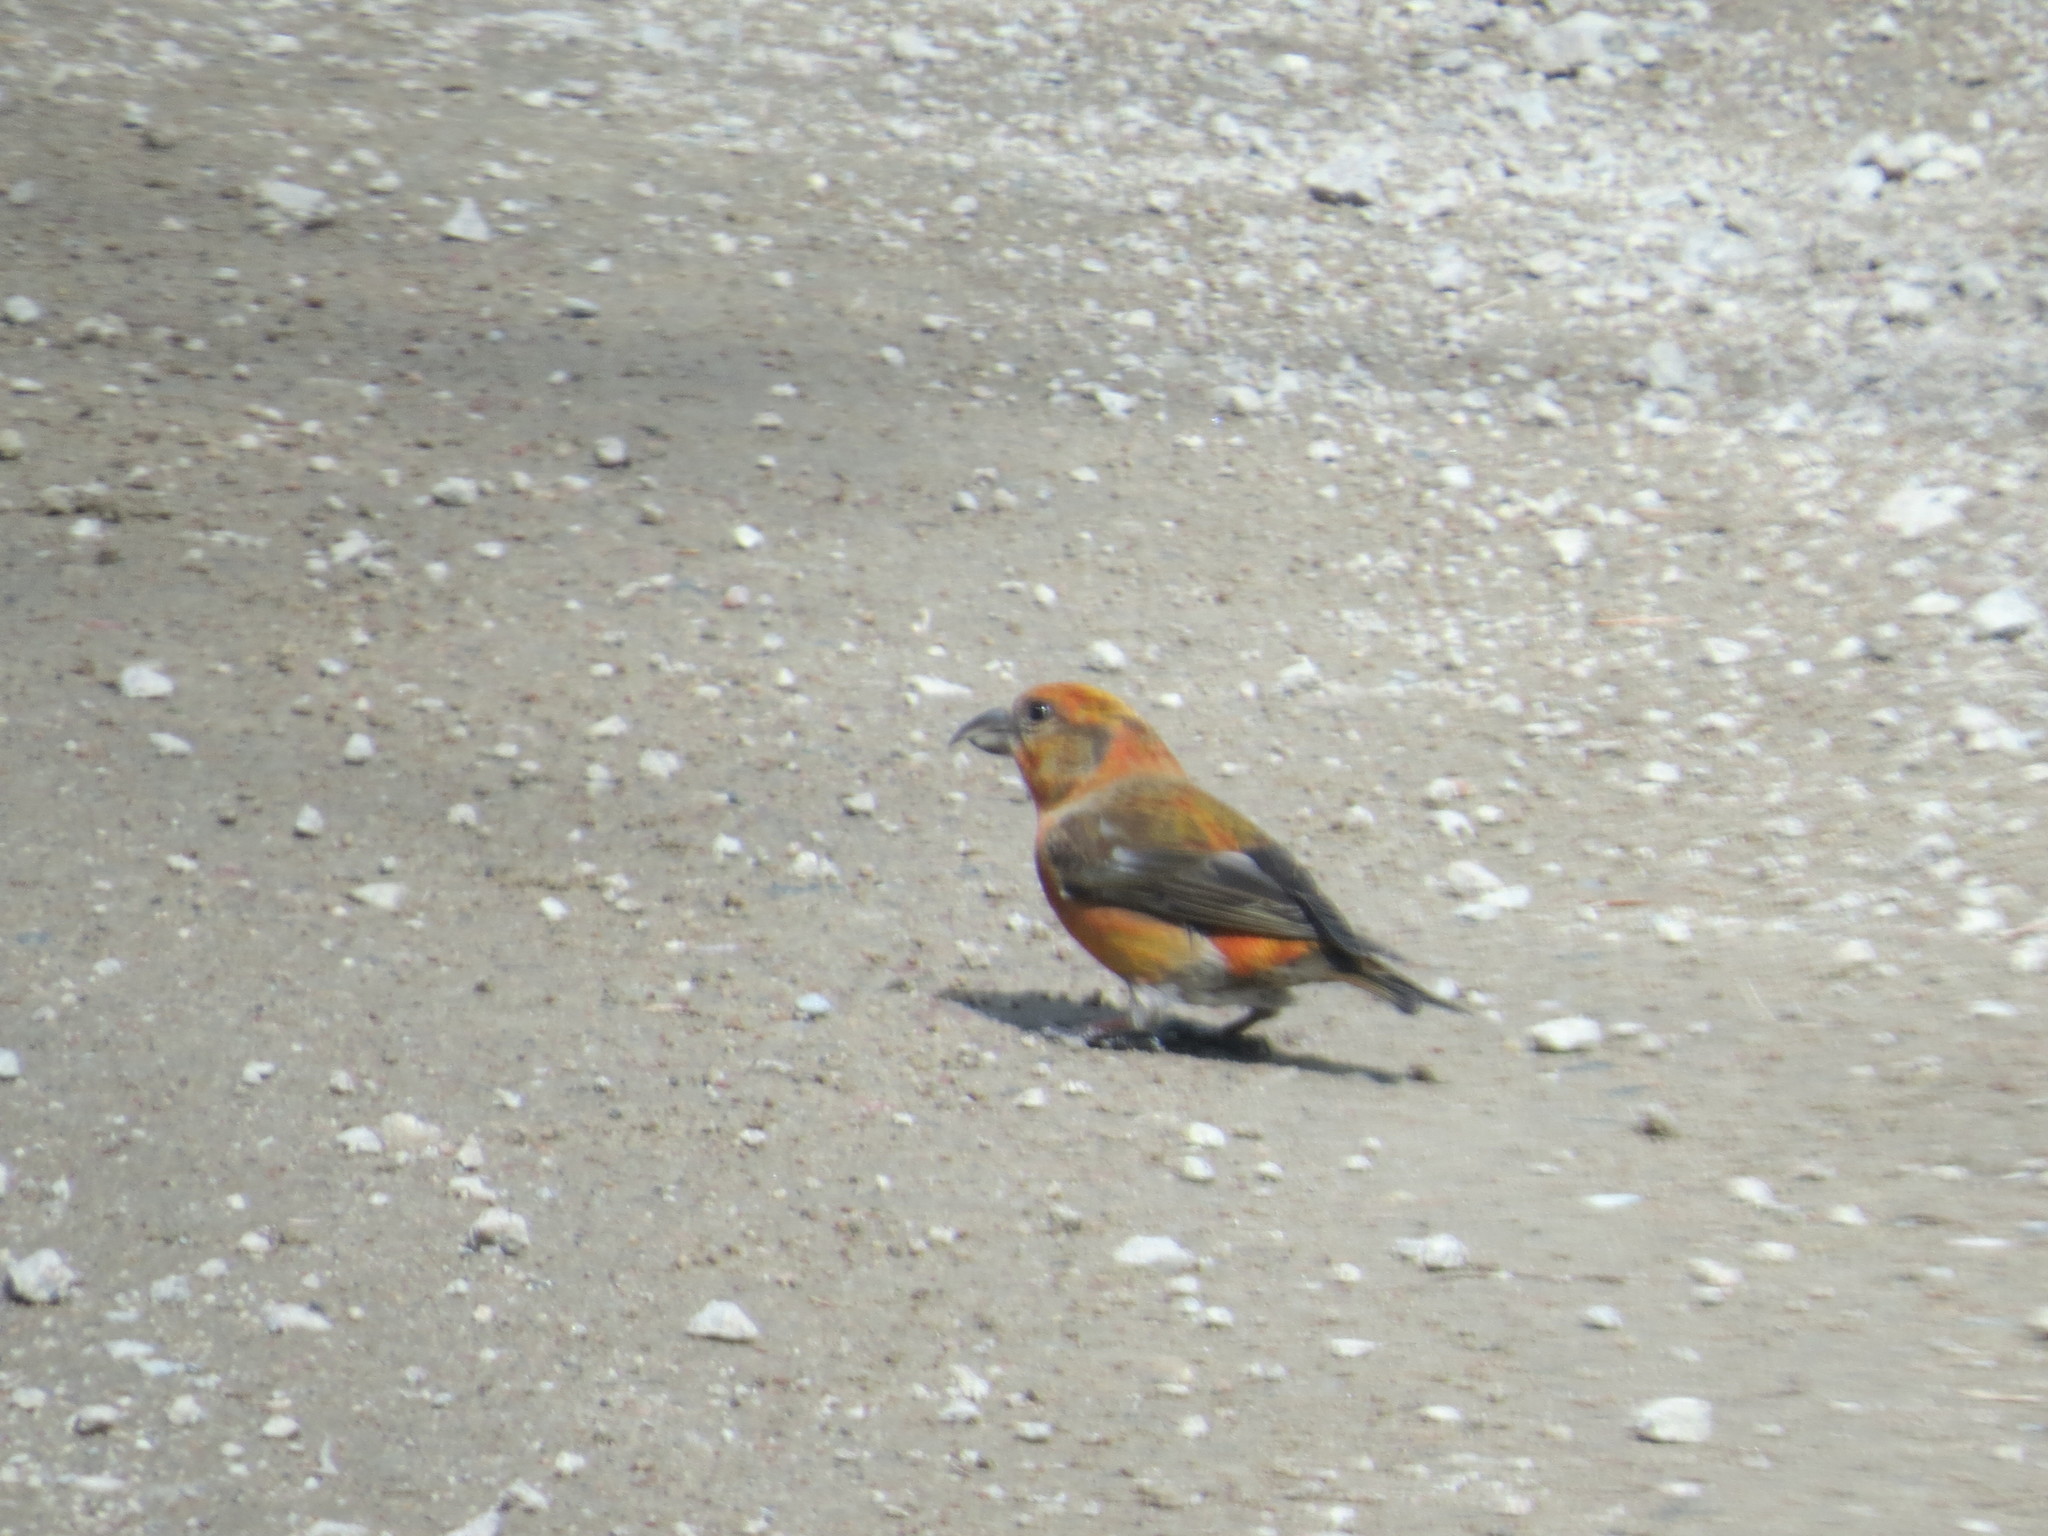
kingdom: Animalia
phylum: Chordata
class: Aves
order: Passeriformes
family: Fringillidae
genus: Loxia
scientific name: Loxia curvirostra
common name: Red crossbill
